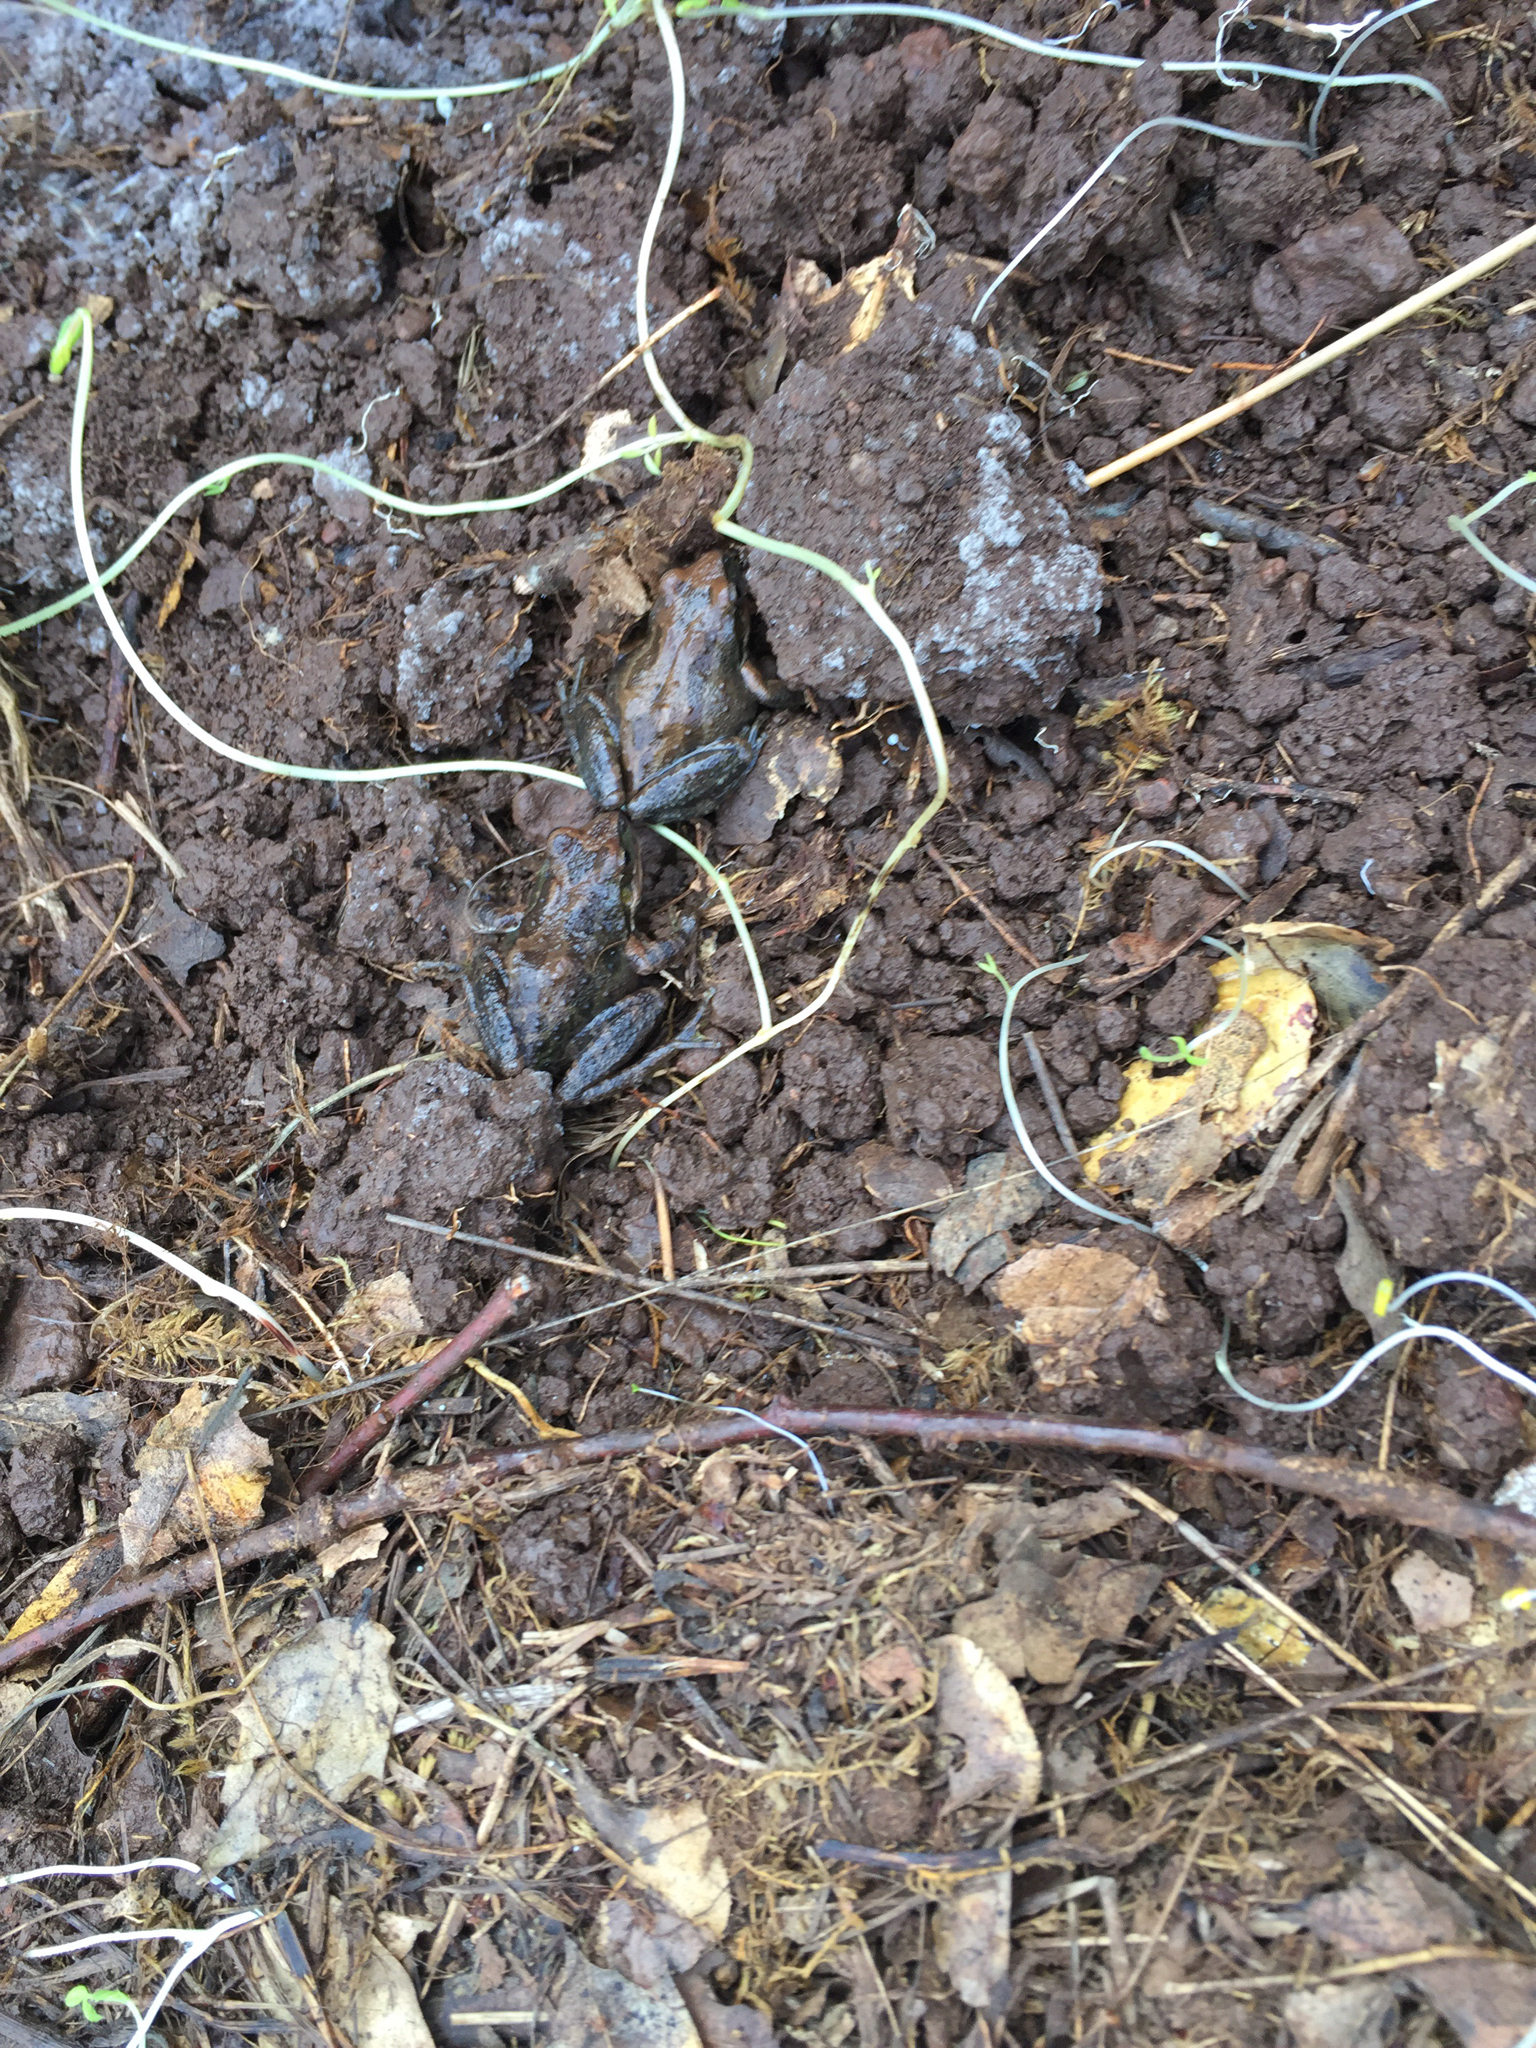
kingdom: Animalia
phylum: Chordata
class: Amphibia
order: Anura
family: Hylidae
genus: Pseudacris
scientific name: Pseudacris regilla
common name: Pacific chorus frog
